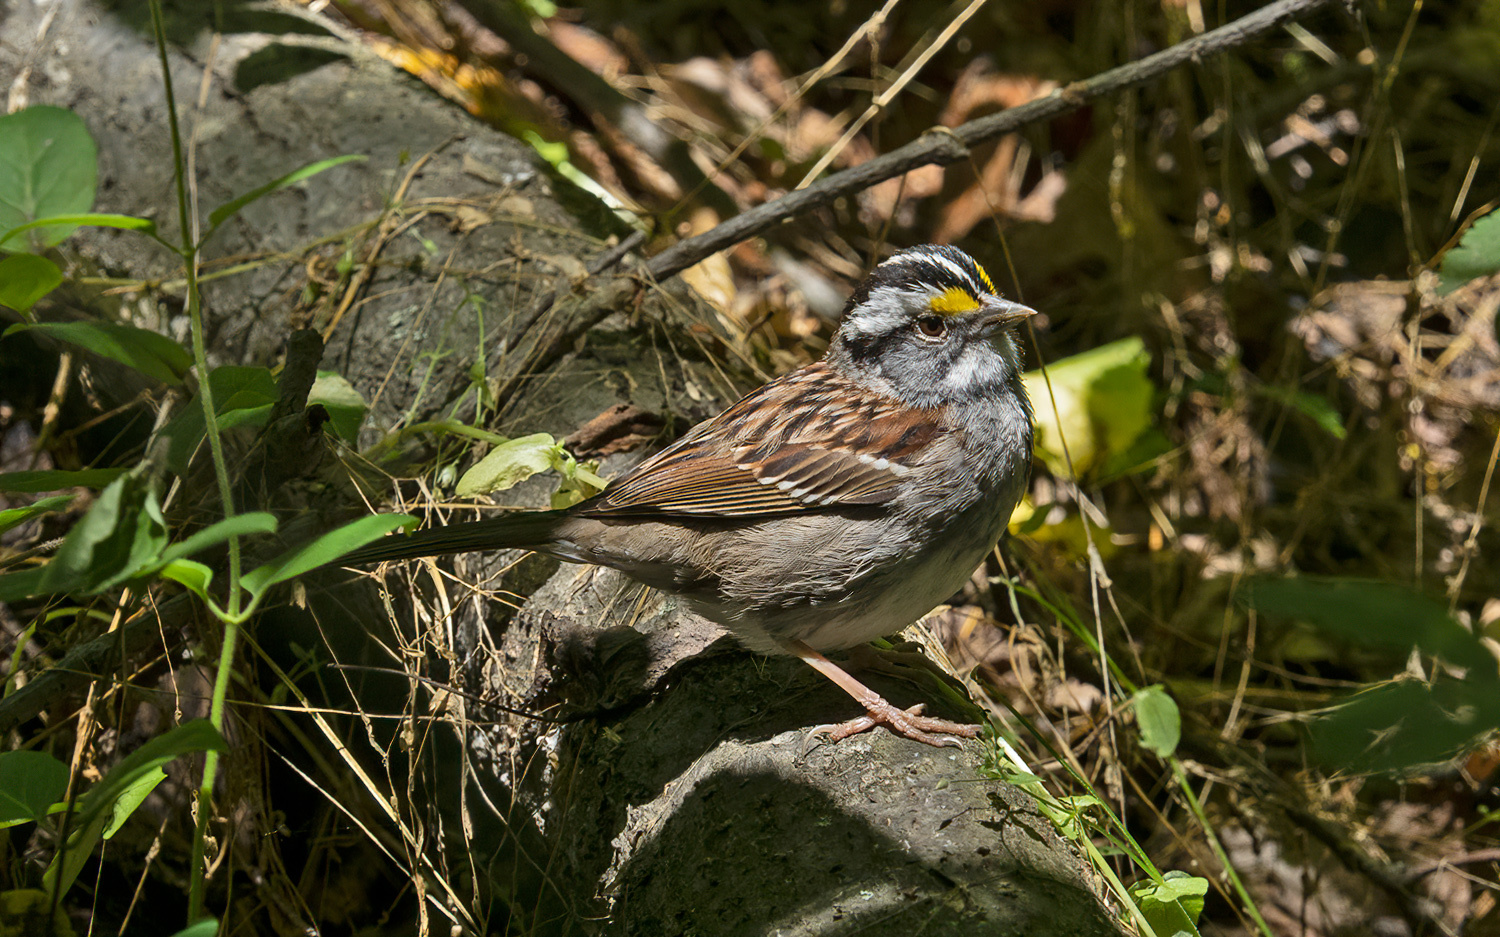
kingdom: Animalia
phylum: Chordata
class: Aves
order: Passeriformes
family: Passerellidae
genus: Zonotrichia
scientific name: Zonotrichia albicollis
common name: White-throated sparrow
